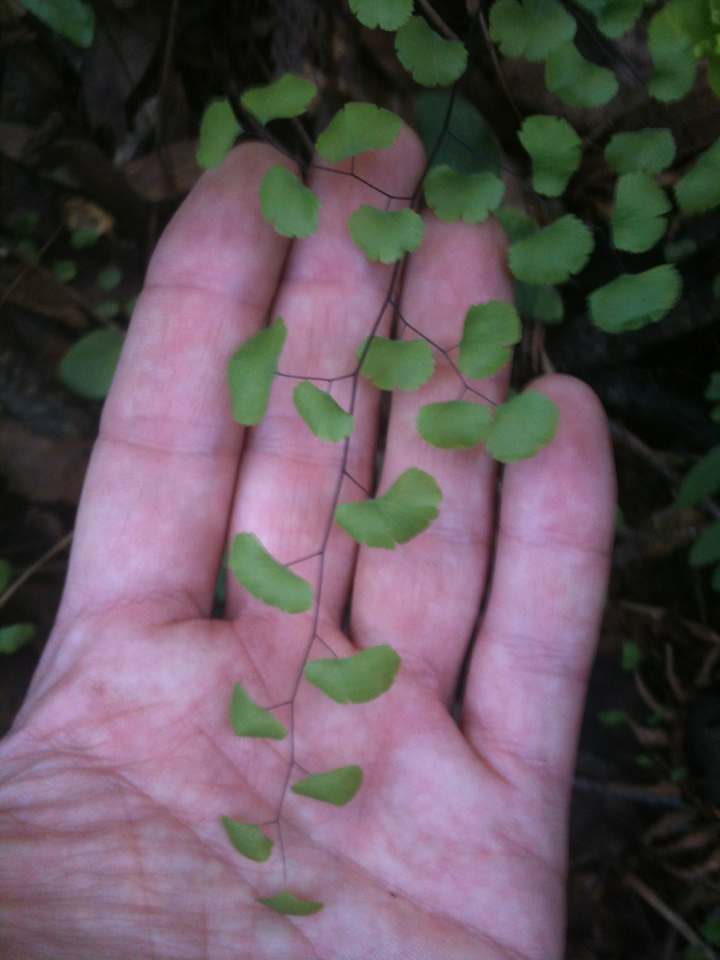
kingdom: Plantae
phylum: Tracheophyta
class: Polypodiopsida
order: Polypodiales
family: Pteridaceae
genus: Adiantum
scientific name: Adiantum jordanii
